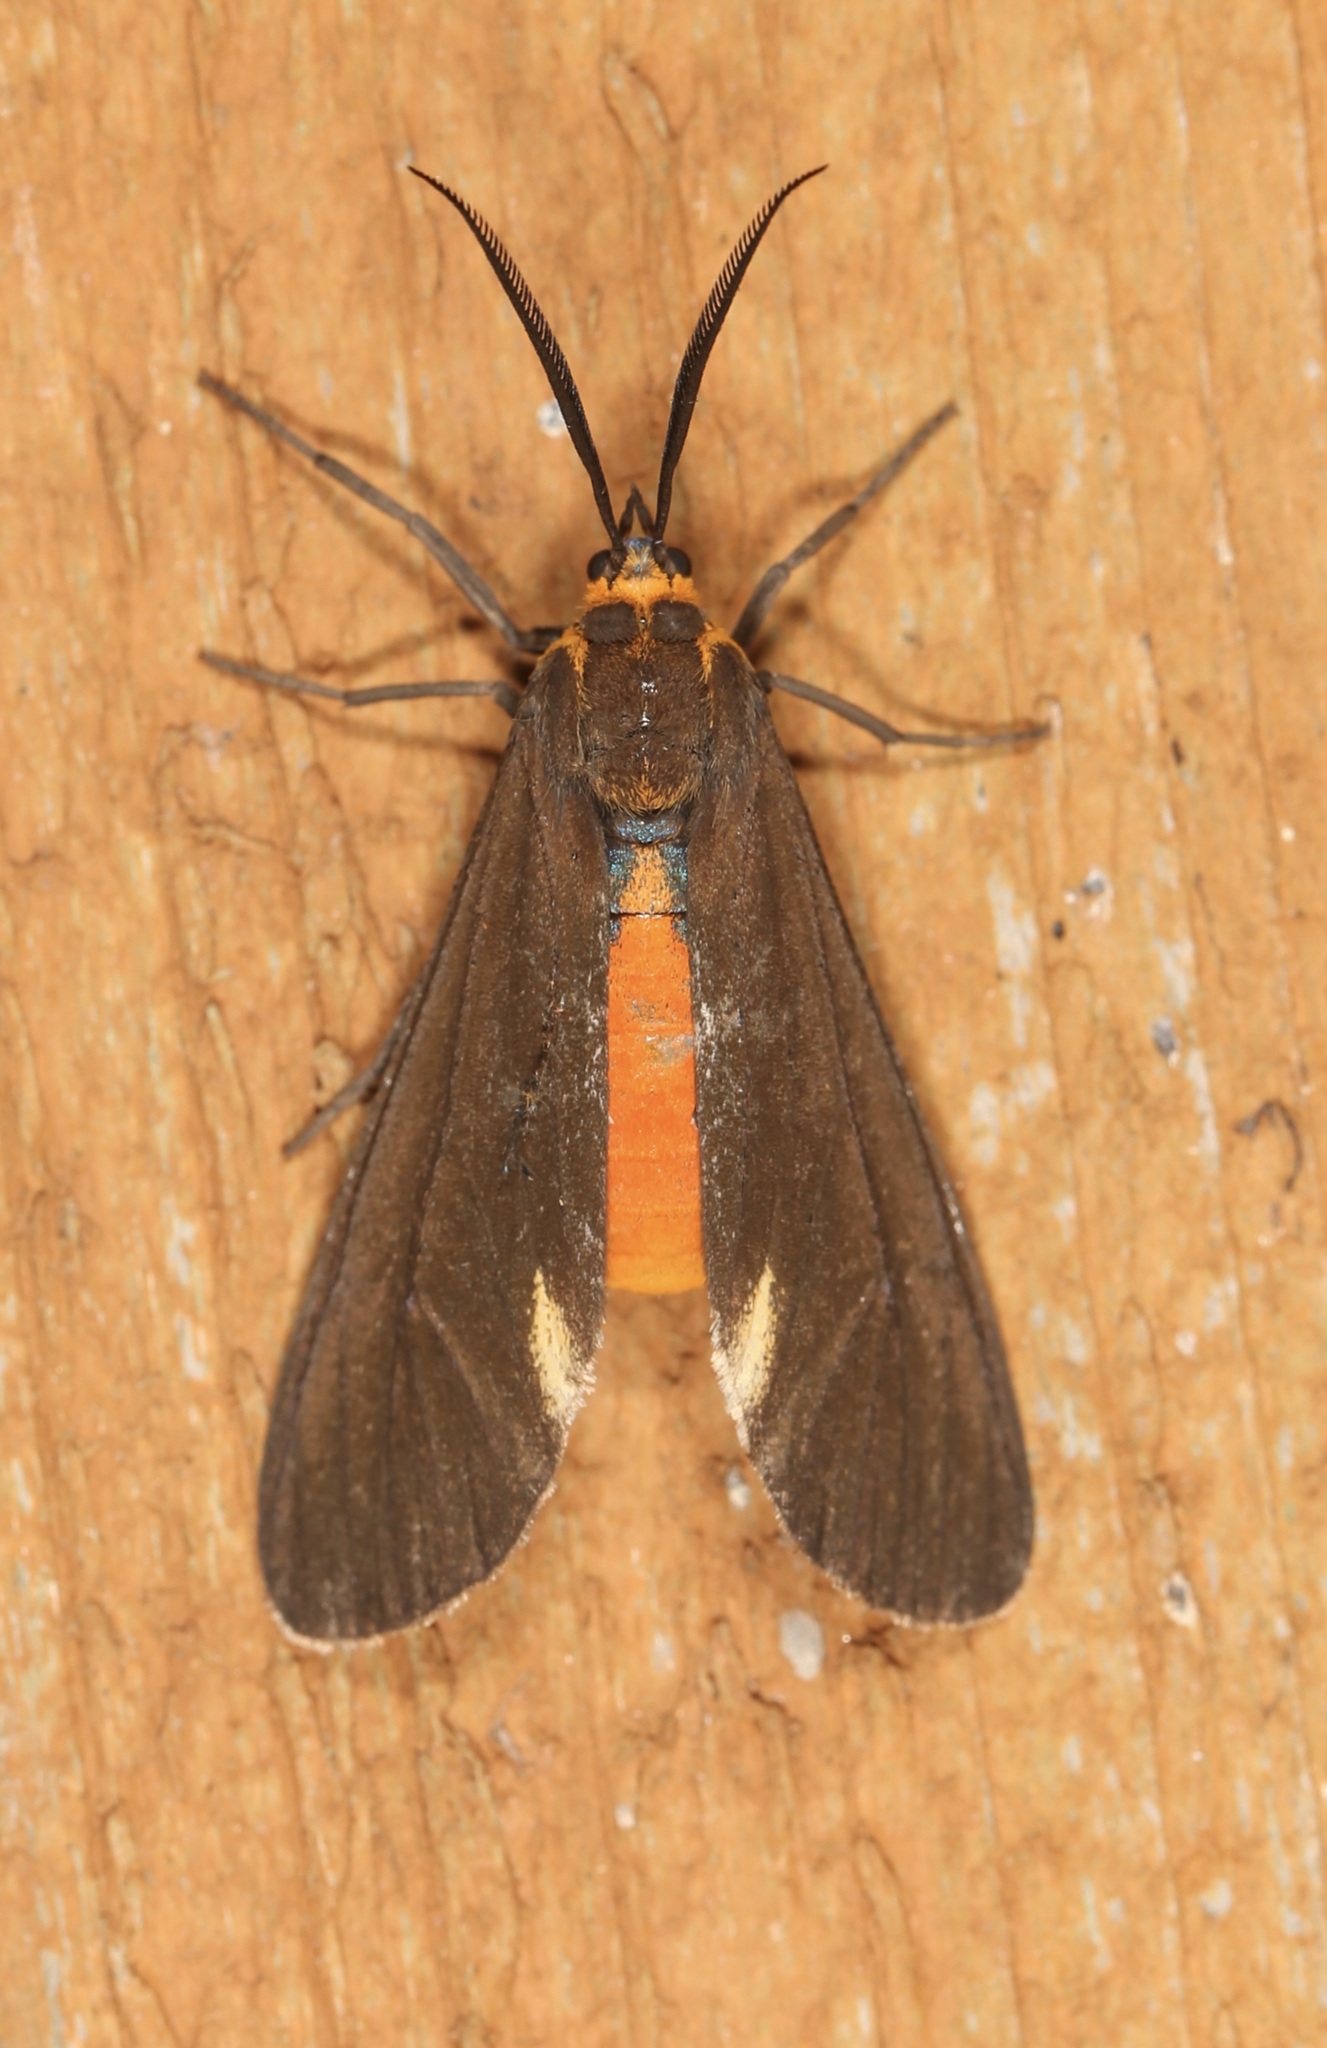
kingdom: Animalia
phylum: Arthropoda
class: Insecta
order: Lepidoptera
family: Erebidae
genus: Dahana
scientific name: Dahana atripennis
